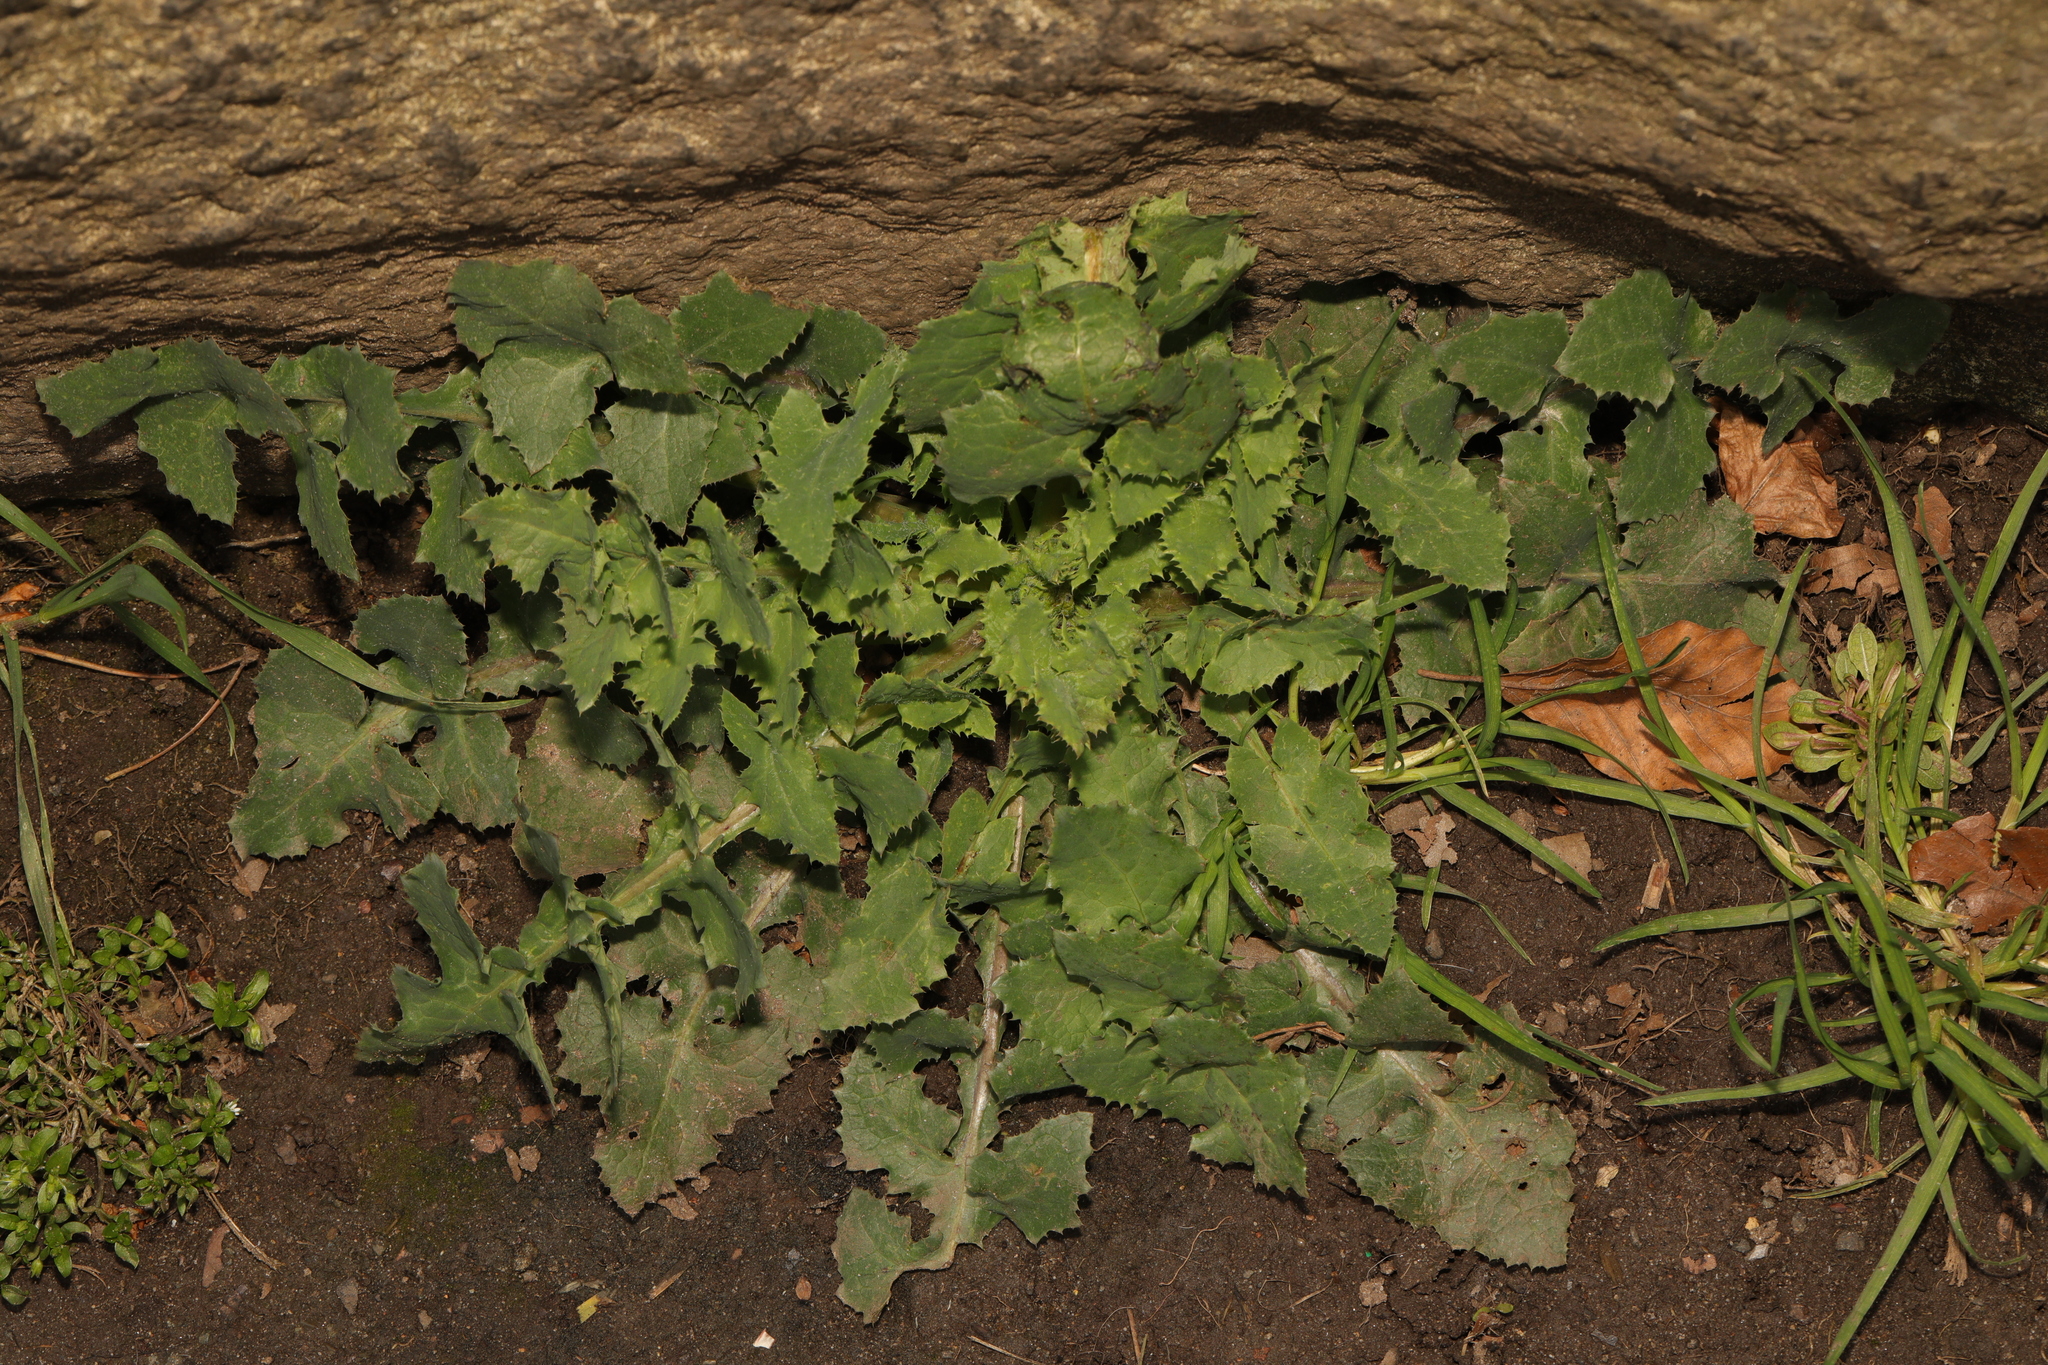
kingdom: Plantae
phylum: Tracheophyta
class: Magnoliopsida
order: Asterales
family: Asteraceae
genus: Sonchus
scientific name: Sonchus oleraceus
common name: Common sowthistle
